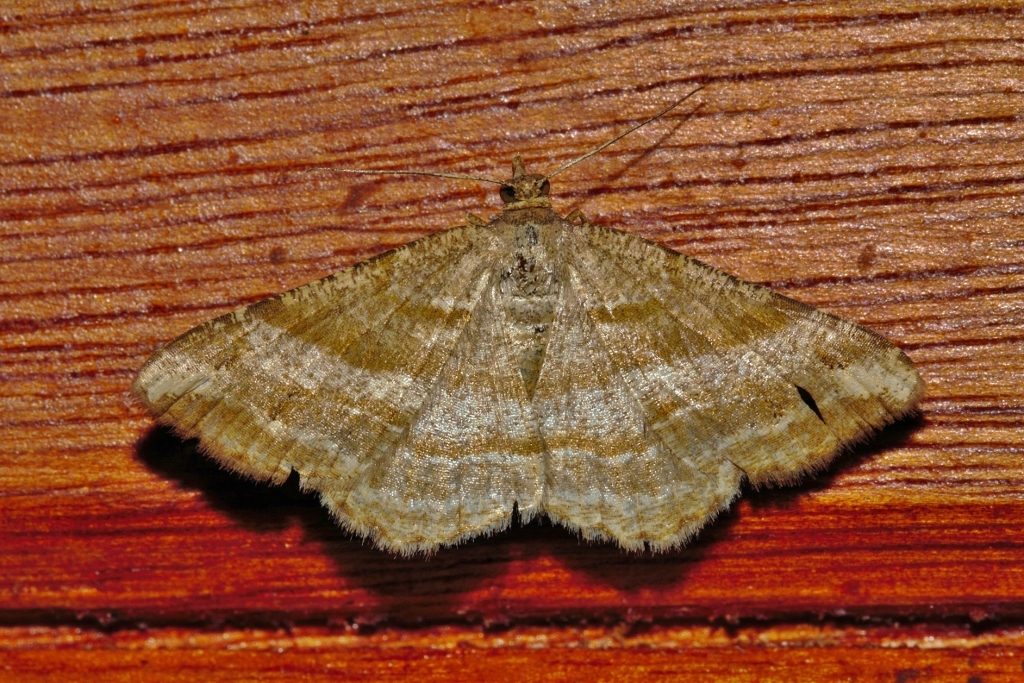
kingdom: Animalia
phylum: Arthropoda
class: Insecta
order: Lepidoptera
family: Geometridae
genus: Chiasmia
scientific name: Chiasmia furcata
